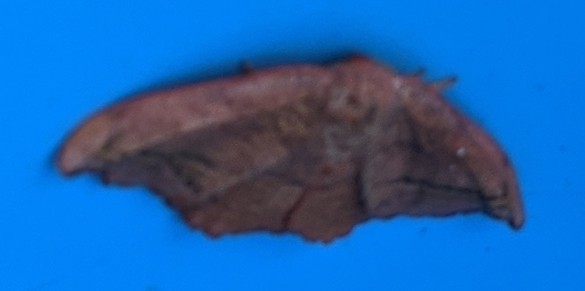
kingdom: Animalia
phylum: Arthropoda
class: Insecta
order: Lepidoptera
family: Drepanidae
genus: Oreta
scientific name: Oreta rosea
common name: Rose hooktip
